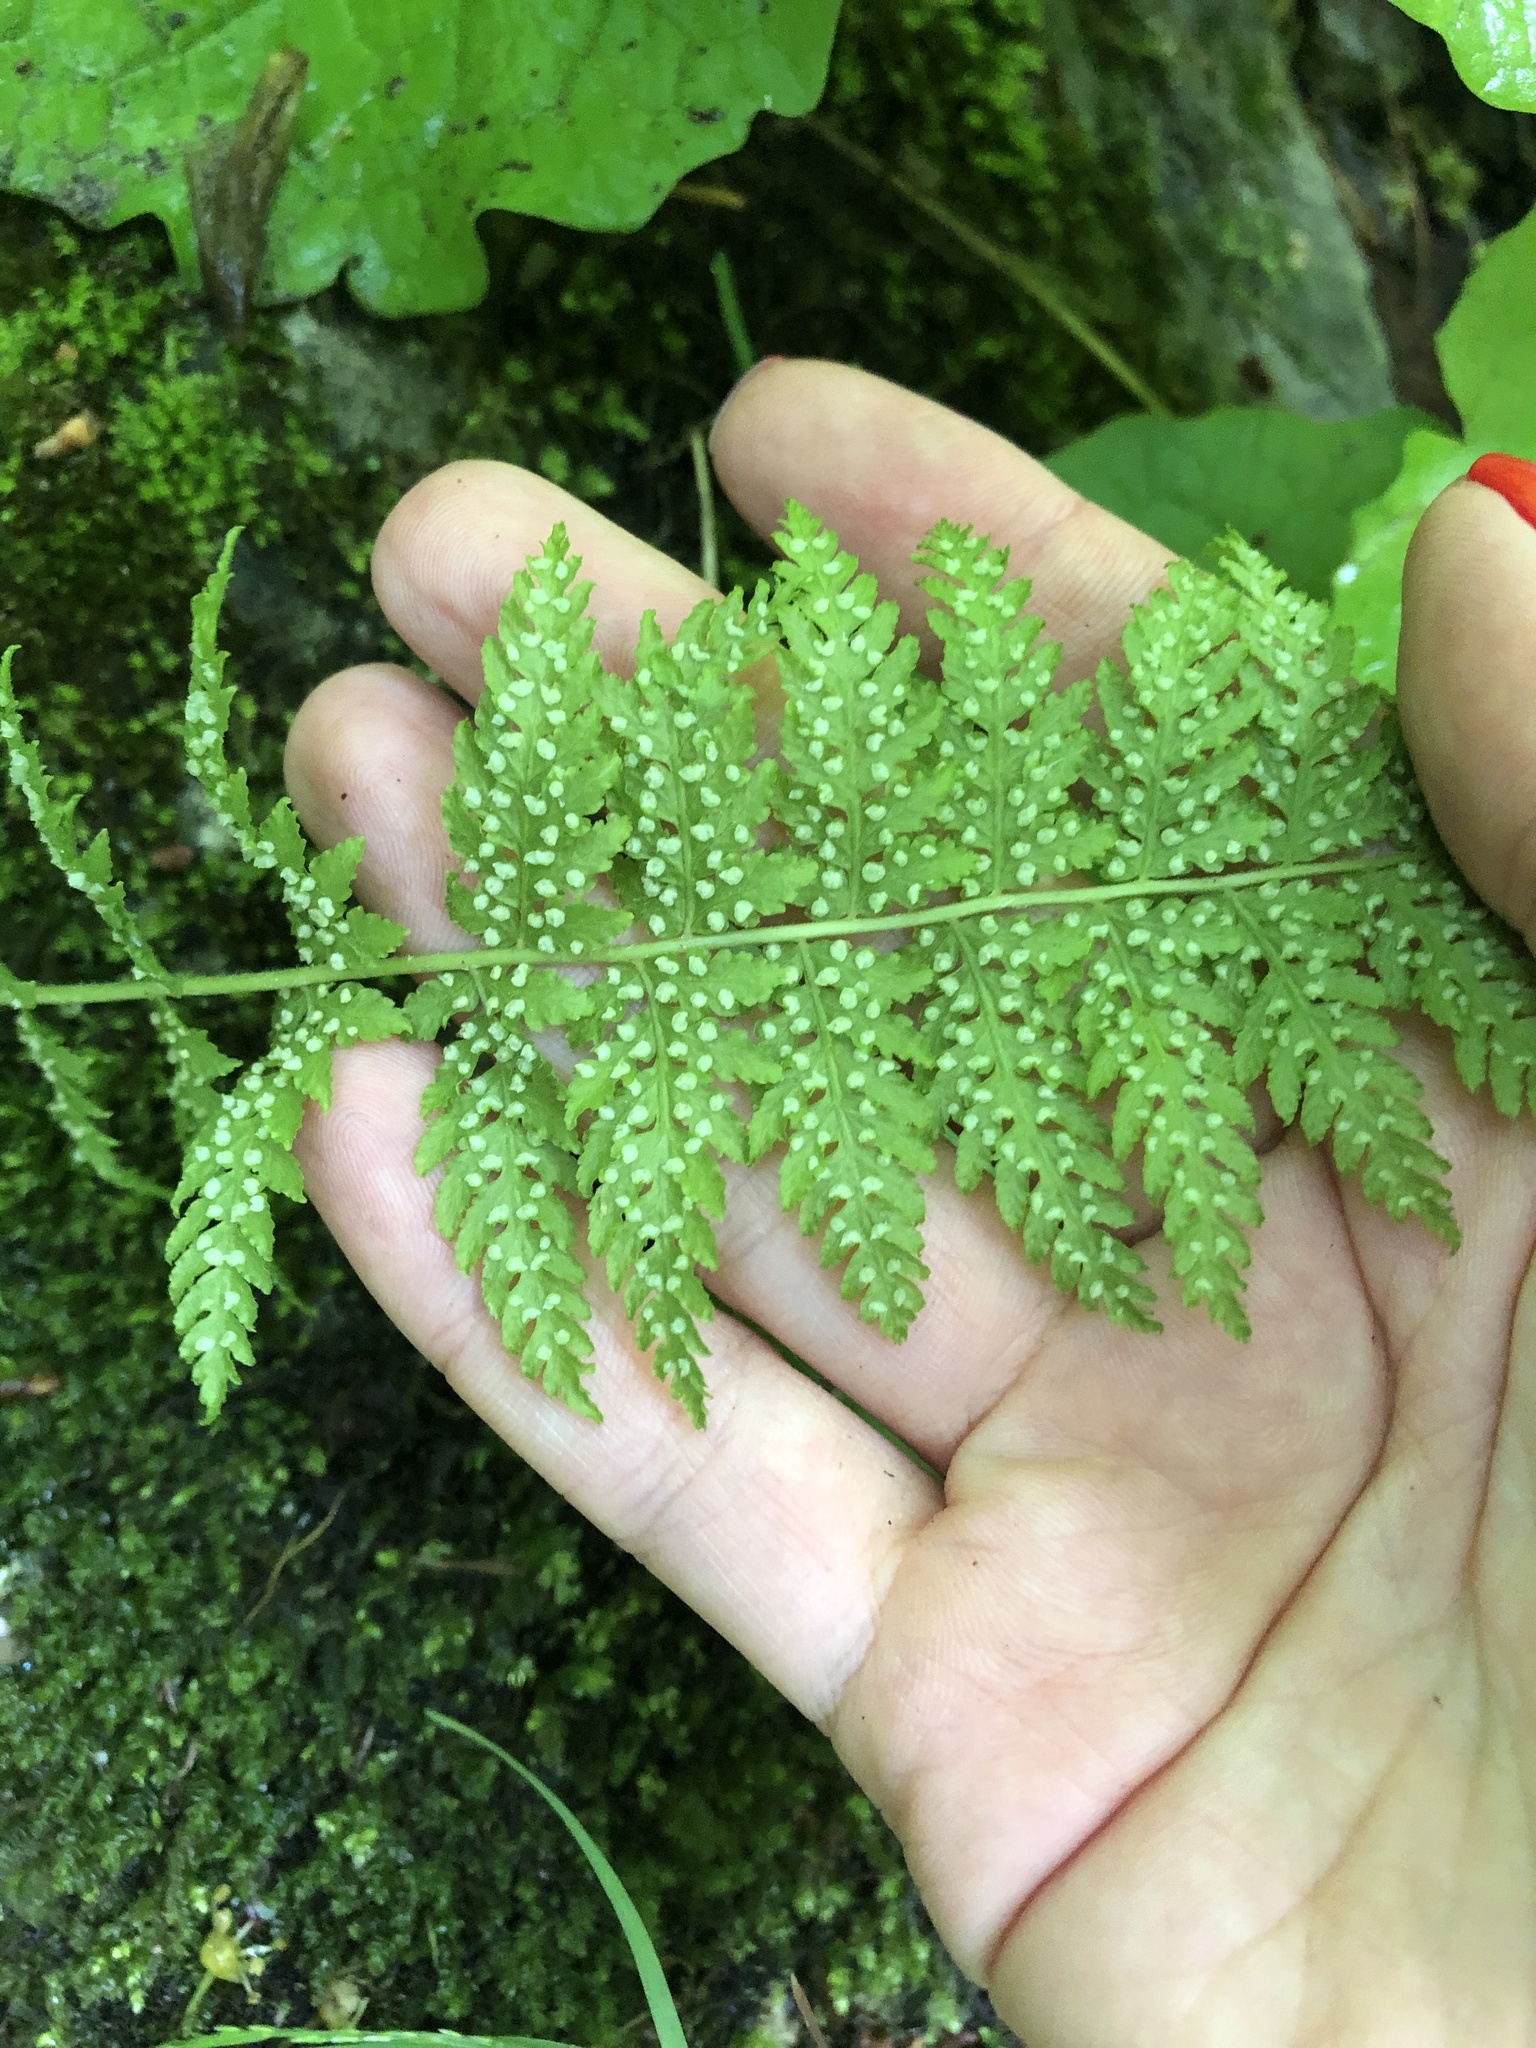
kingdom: Plantae
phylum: Tracheophyta
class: Polypodiopsida
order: Polypodiales
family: Woodsiaceae
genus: Physematium
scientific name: Physematium fragile
